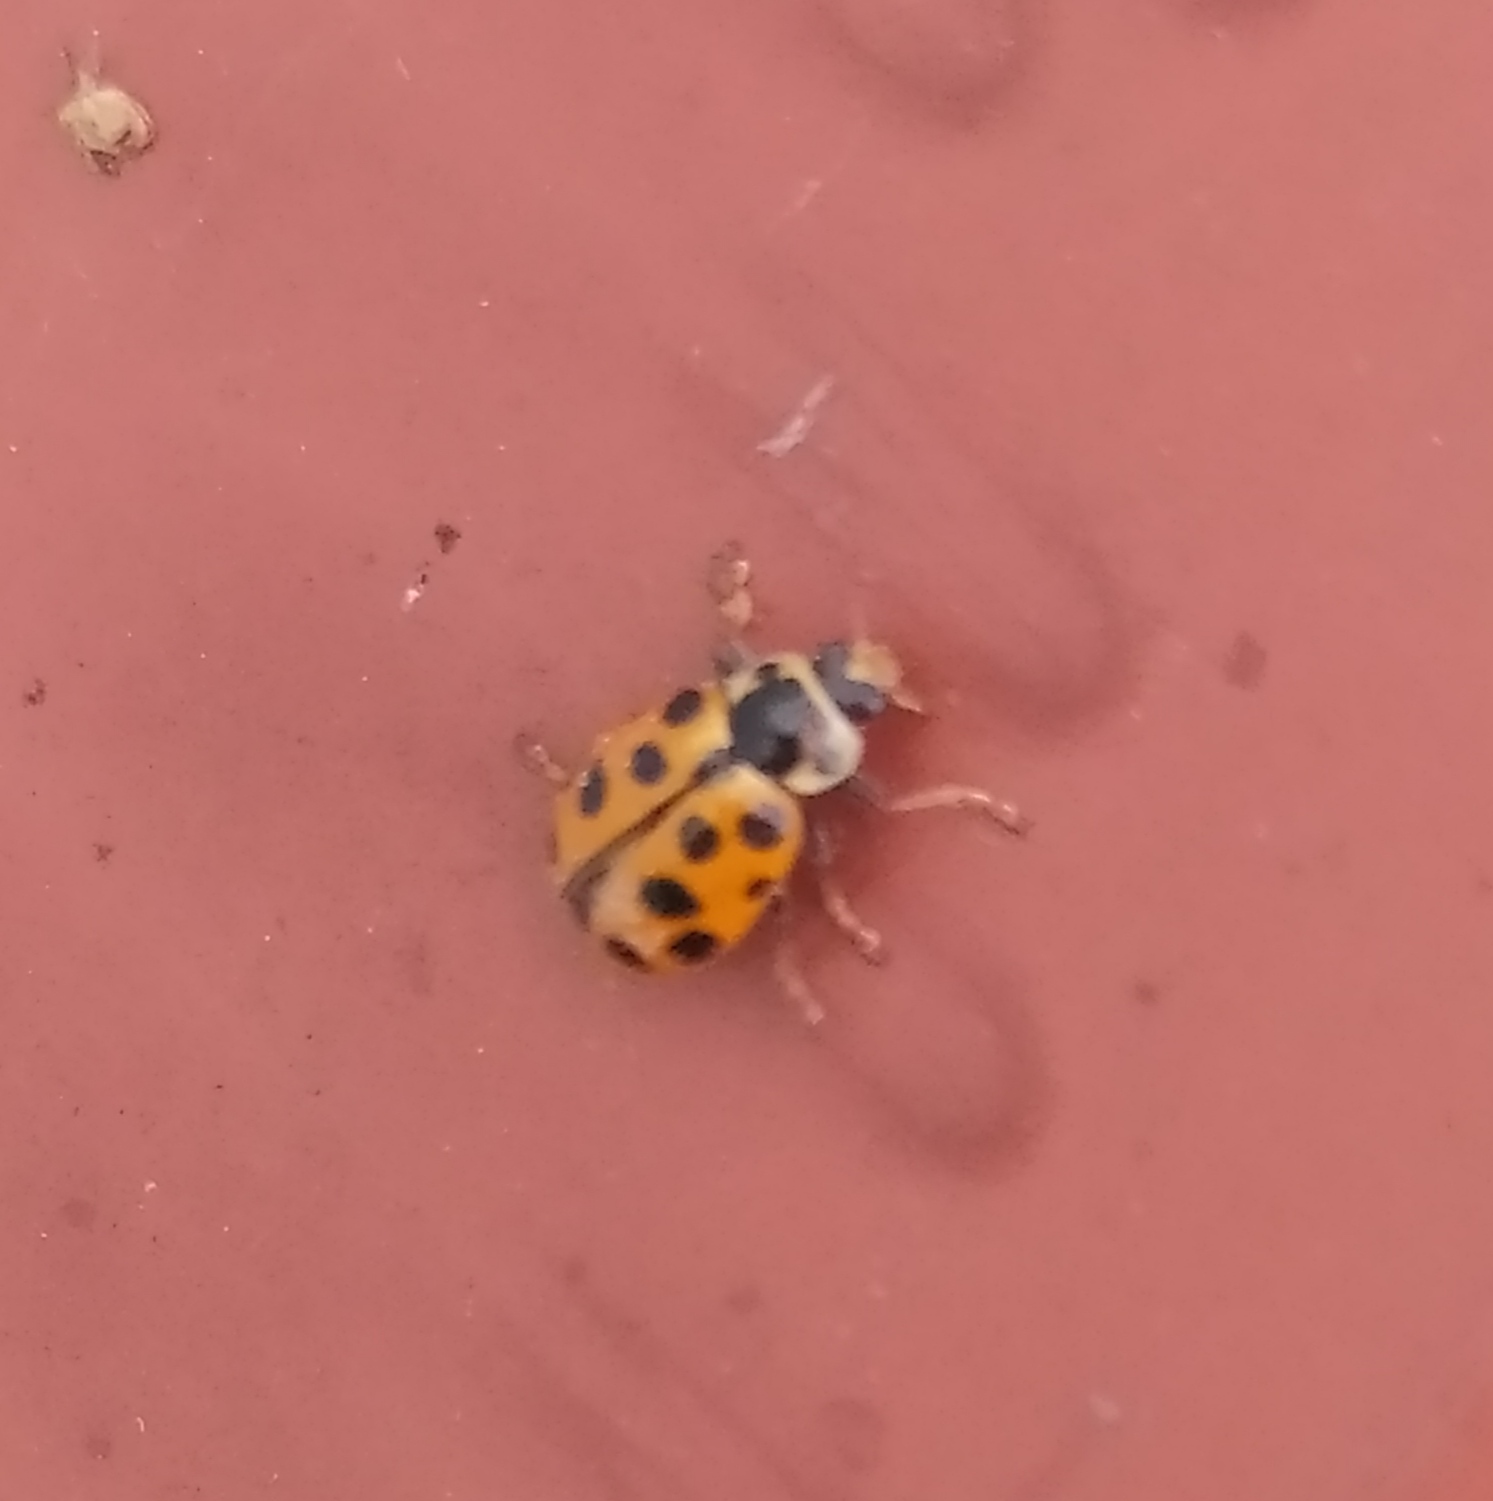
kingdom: Animalia
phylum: Arthropoda
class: Insecta
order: Coleoptera
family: Coccinellidae
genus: Hippodamia
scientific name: Hippodamia tredecimpunctata
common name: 13-spot ladybird
